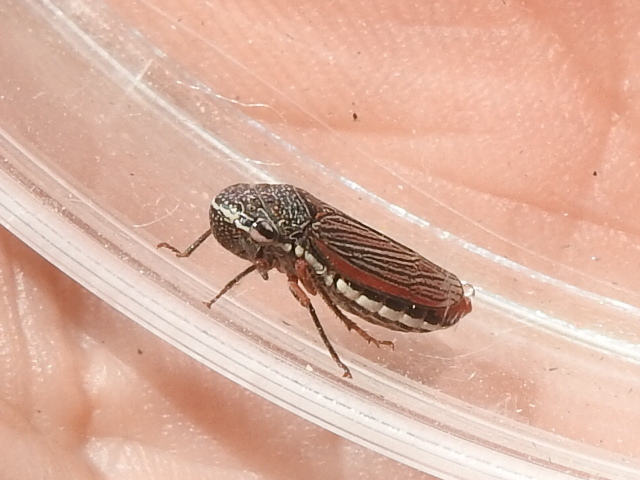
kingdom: Animalia
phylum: Arthropoda
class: Insecta
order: Hemiptera
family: Cicadellidae
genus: Cuerna
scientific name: Cuerna costalis
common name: Lateral-lined sharpshooter
